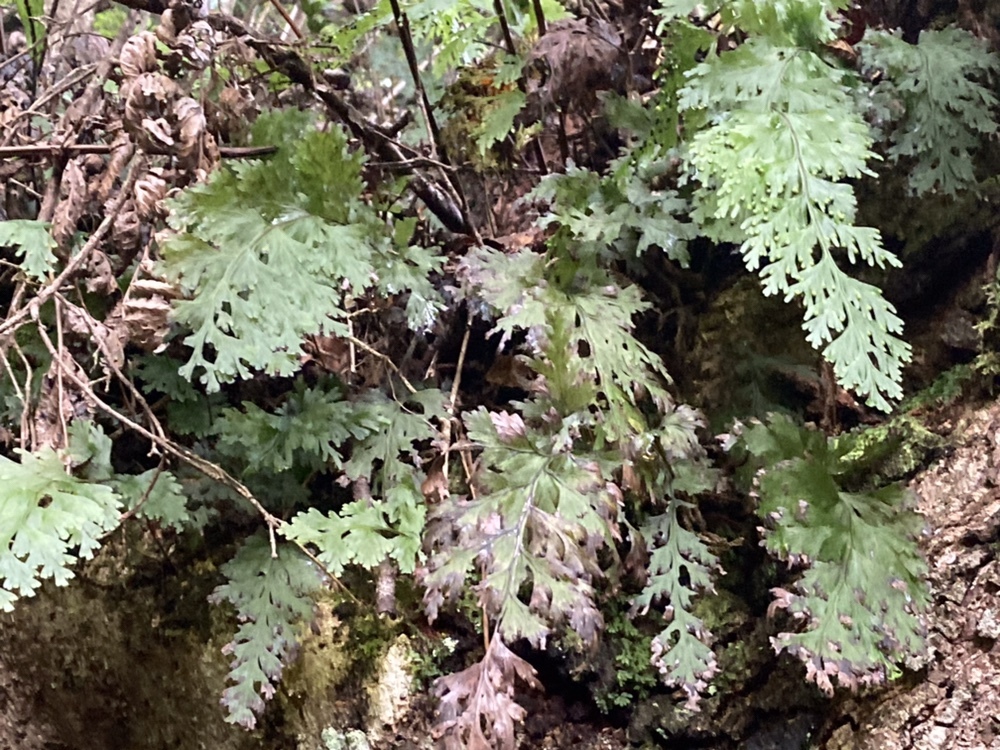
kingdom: Plantae
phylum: Tracheophyta
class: Polypodiopsida
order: Hymenophyllales
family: Hymenophyllaceae
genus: Hymenophyllum
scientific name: Hymenophyllum dilatatum
